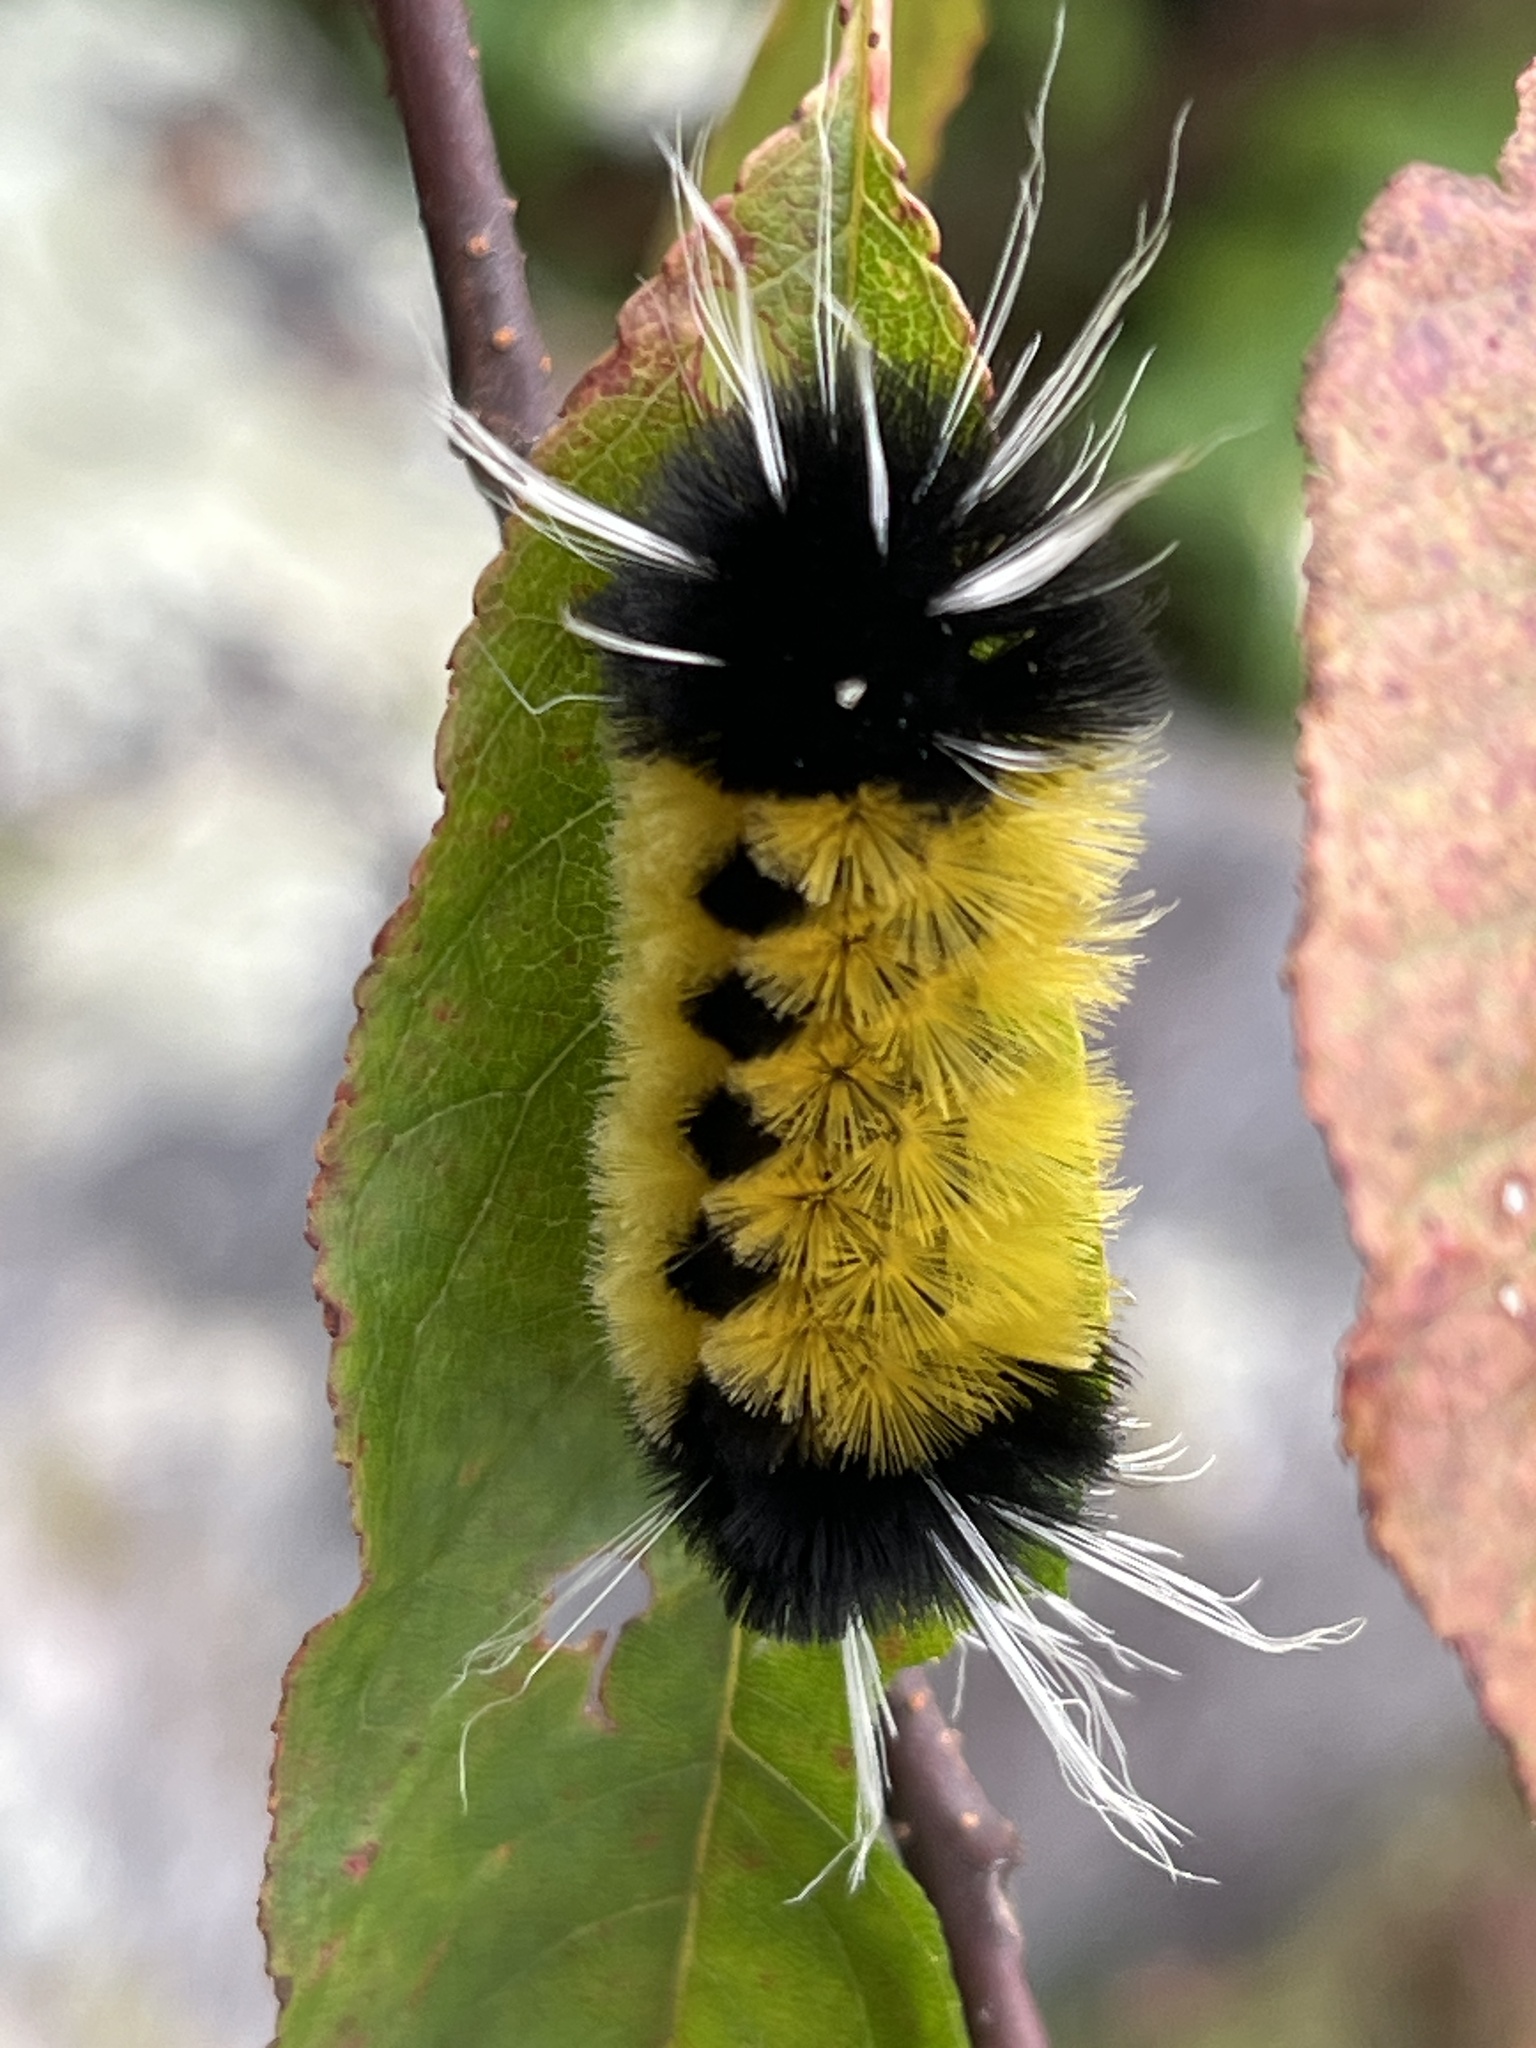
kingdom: Animalia
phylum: Arthropoda
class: Insecta
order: Lepidoptera
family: Erebidae
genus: Lophocampa
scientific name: Lophocampa maculata
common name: Spotted tussock moth
